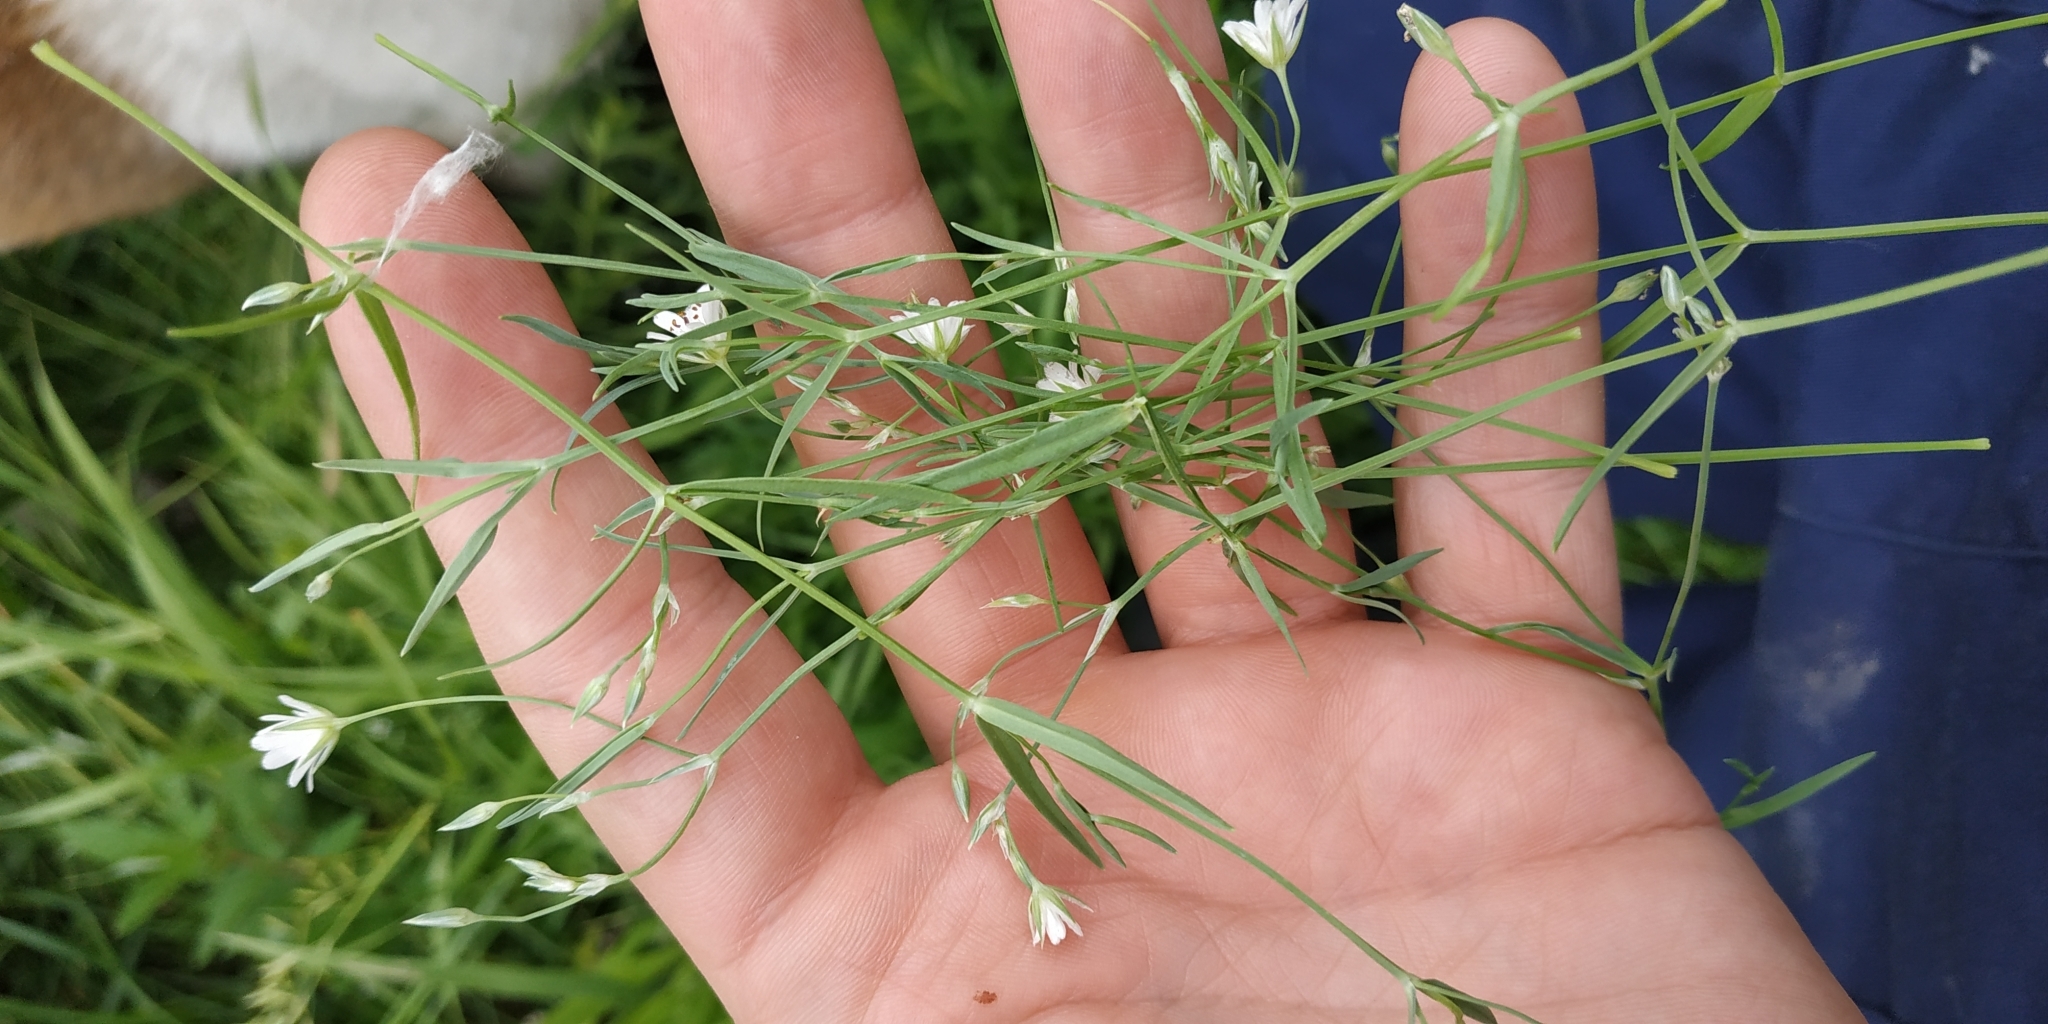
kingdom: Plantae
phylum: Tracheophyta
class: Magnoliopsida
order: Caryophyllales
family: Caryophyllaceae
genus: Stellaria
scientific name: Stellaria palustris
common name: Marsh stitchwort
